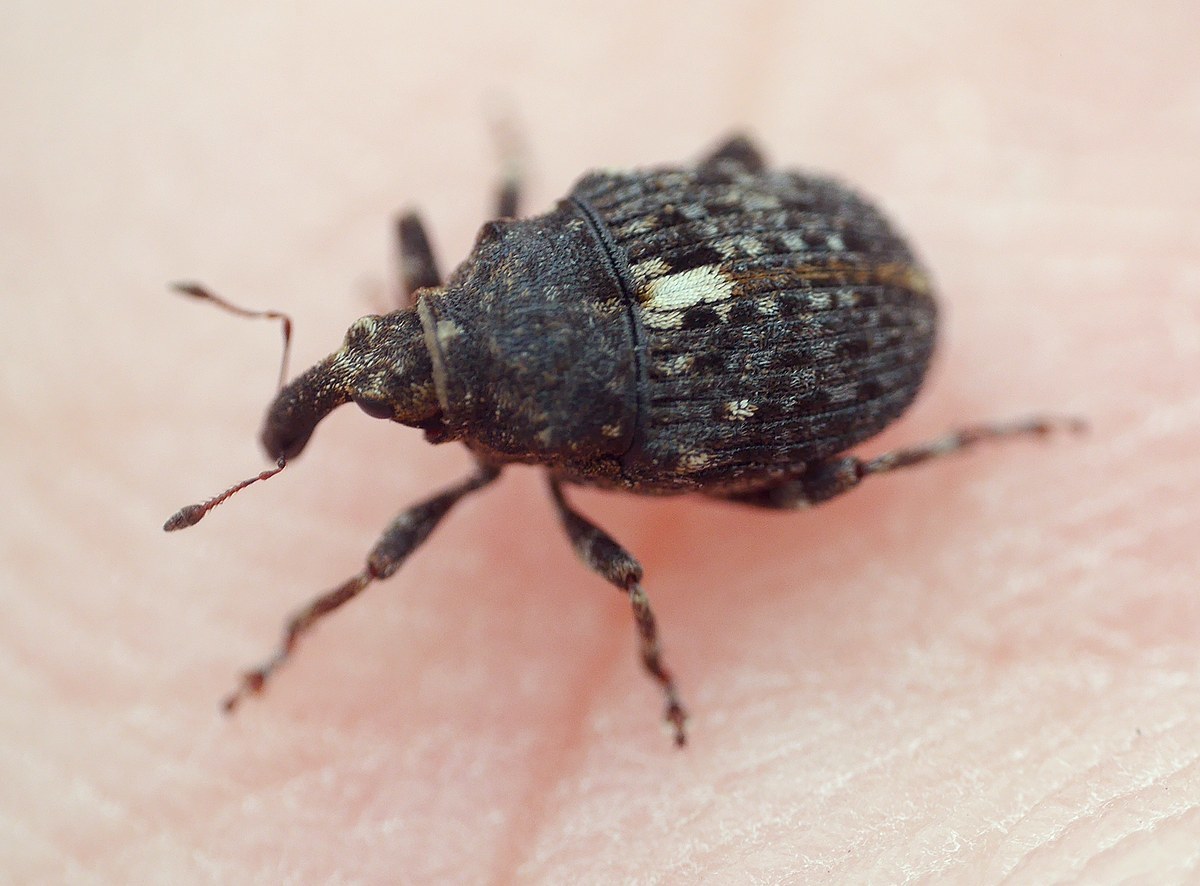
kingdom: Animalia
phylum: Arthropoda
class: Insecta
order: Coleoptera
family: Curculionidae
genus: Phrydiuchus
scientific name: Phrydiuchus tau
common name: Weevil
